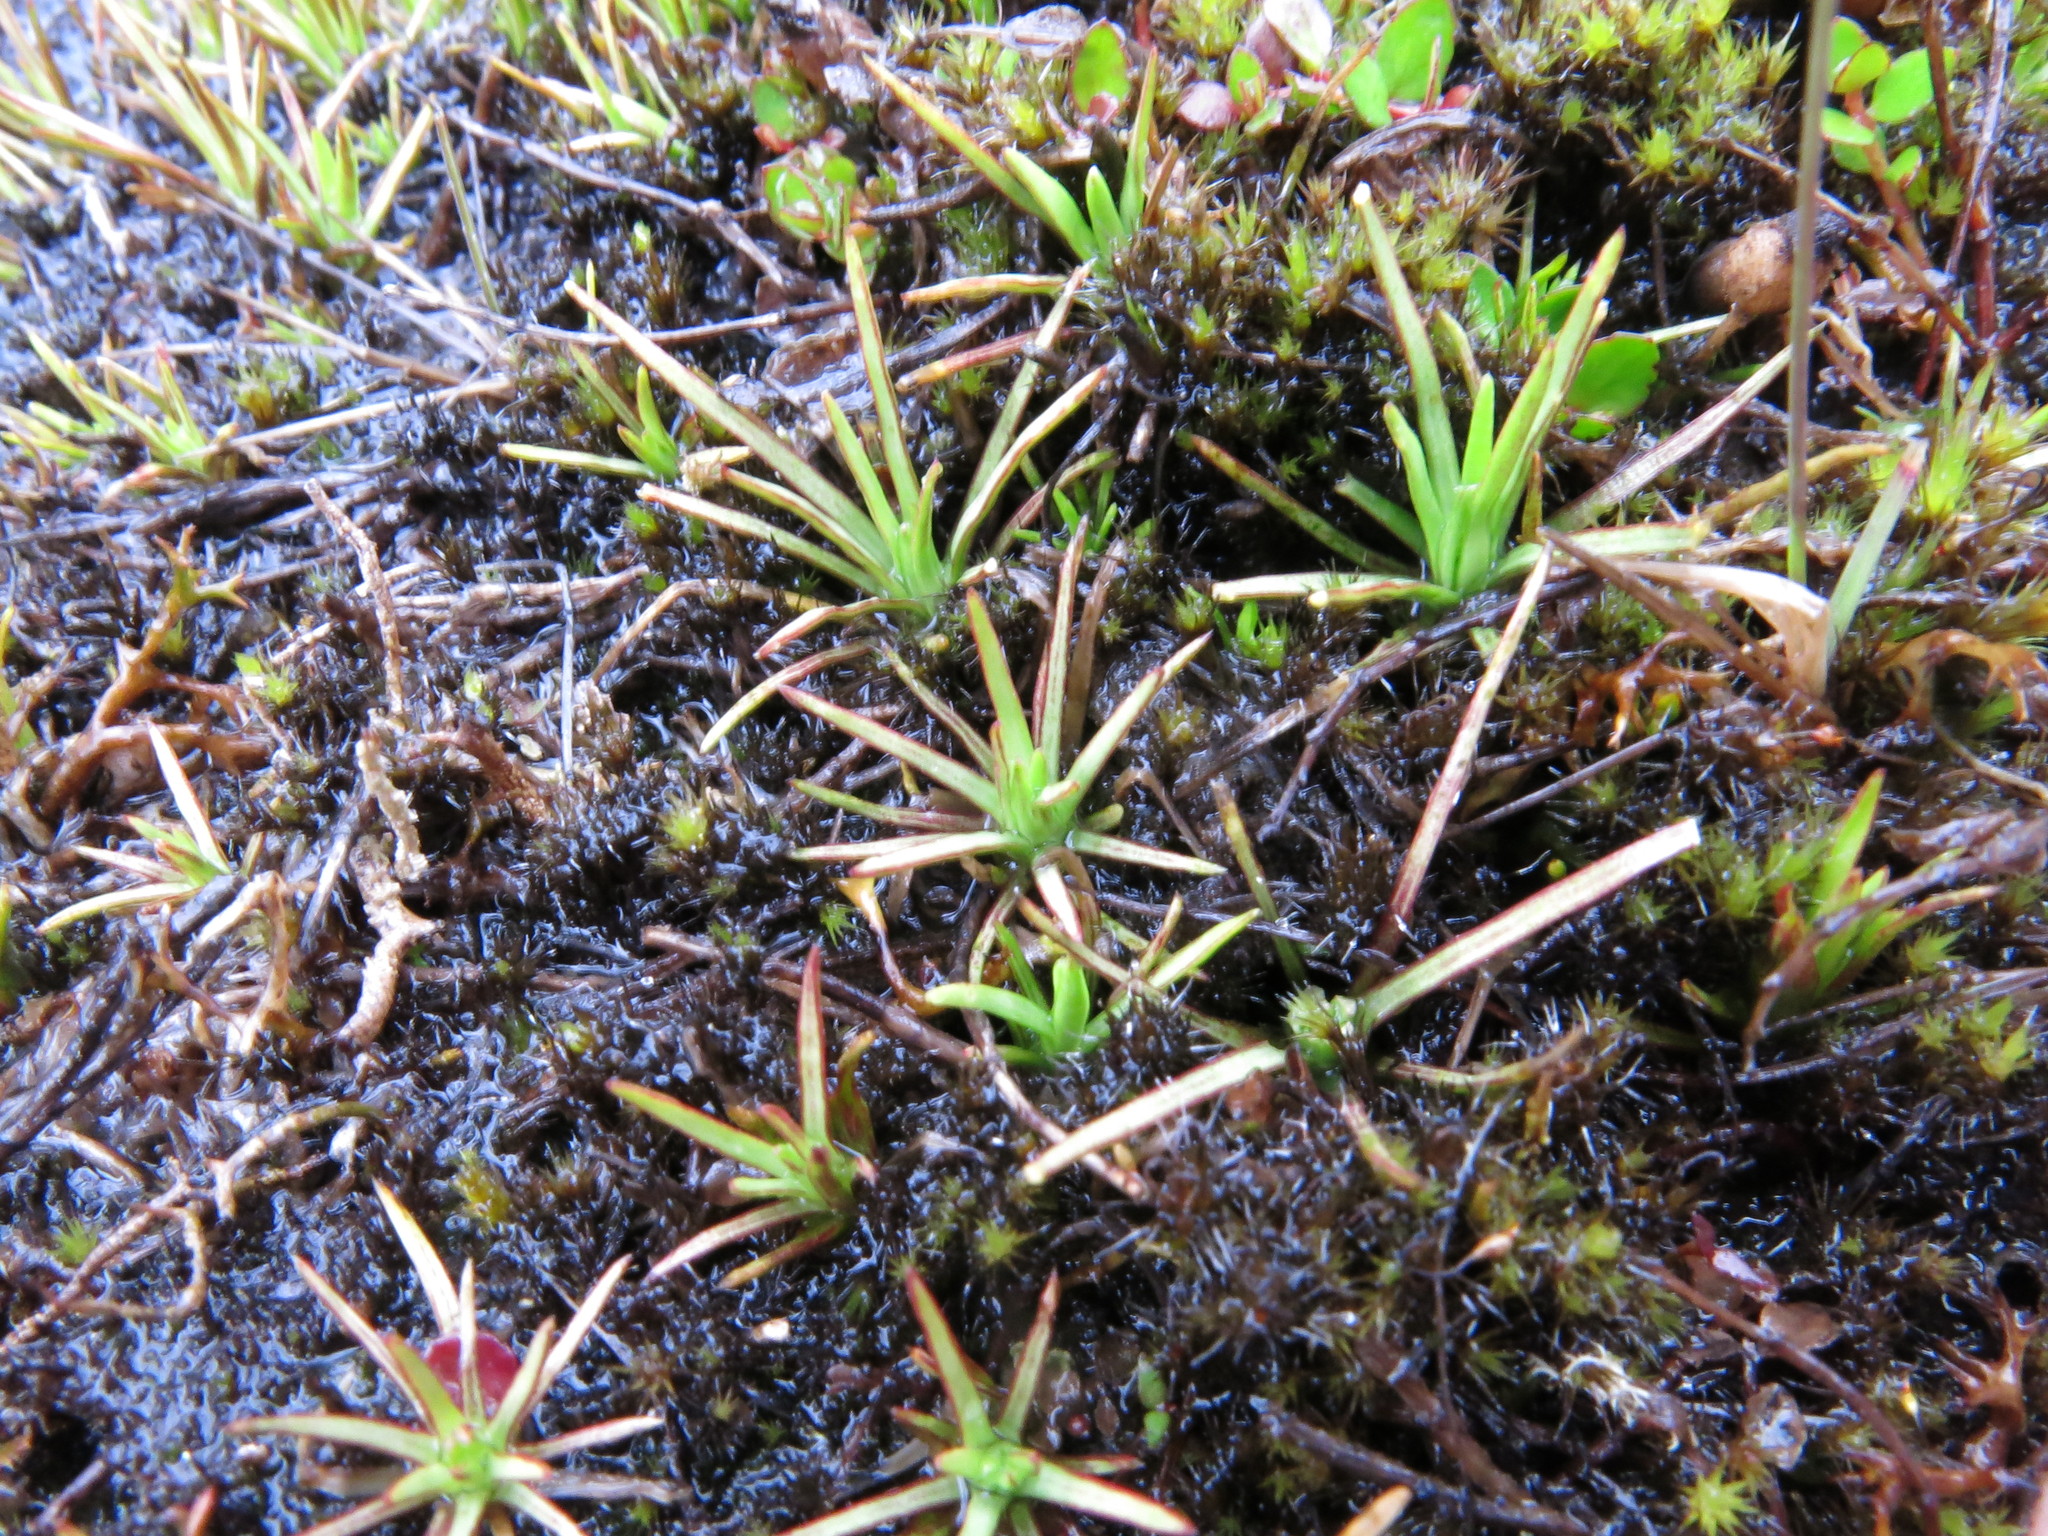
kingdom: Plantae
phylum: Tracheophyta
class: Magnoliopsida
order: Asterales
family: Stylidiaceae
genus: Oreostylidium
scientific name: Oreostylidium subulatum
